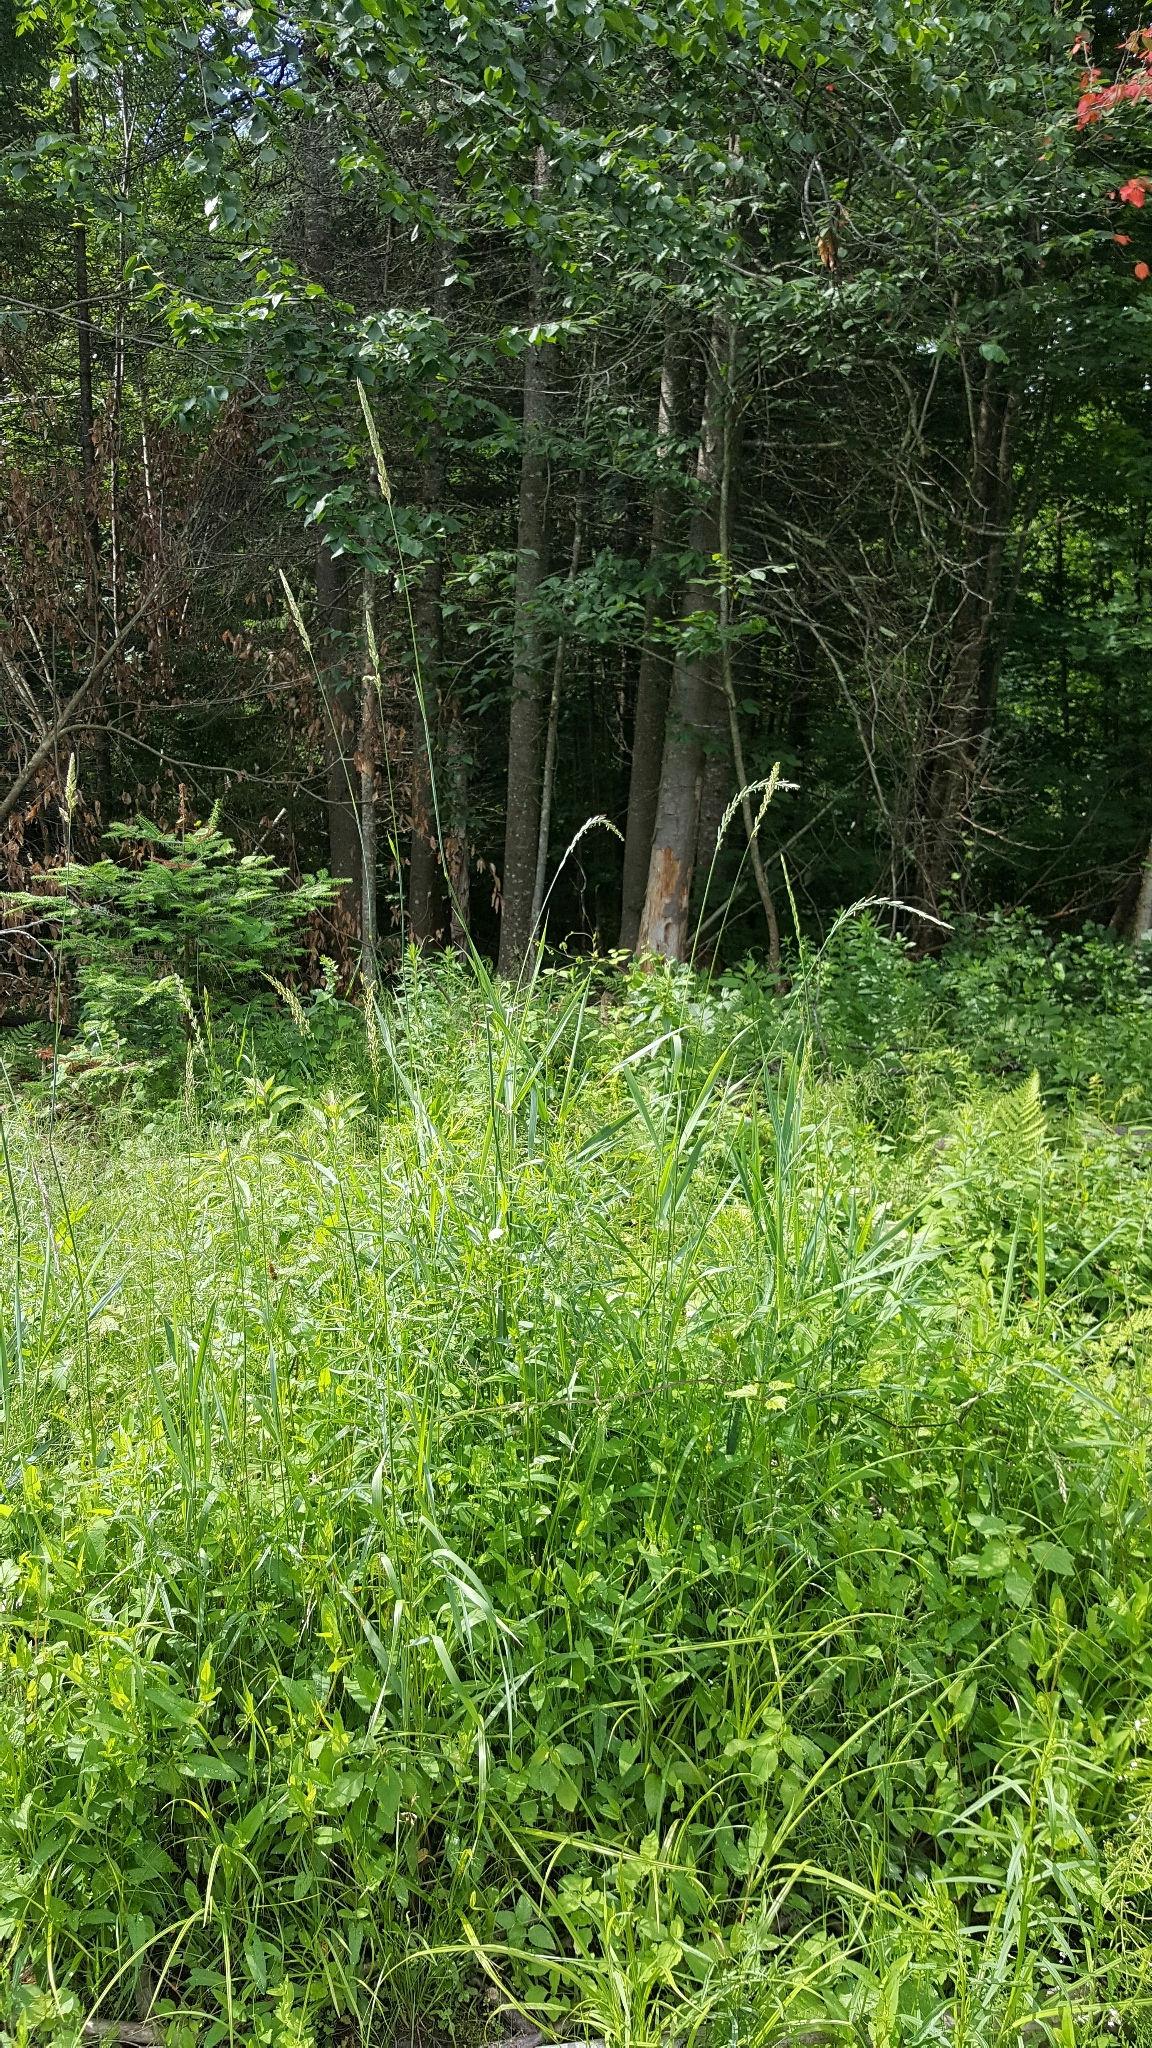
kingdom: Plantae
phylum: Tracheophyta
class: Liliopsida
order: Poales
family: Poaceae
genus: Phalaris
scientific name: Phalaris arundinacea
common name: Reed canary-grass
